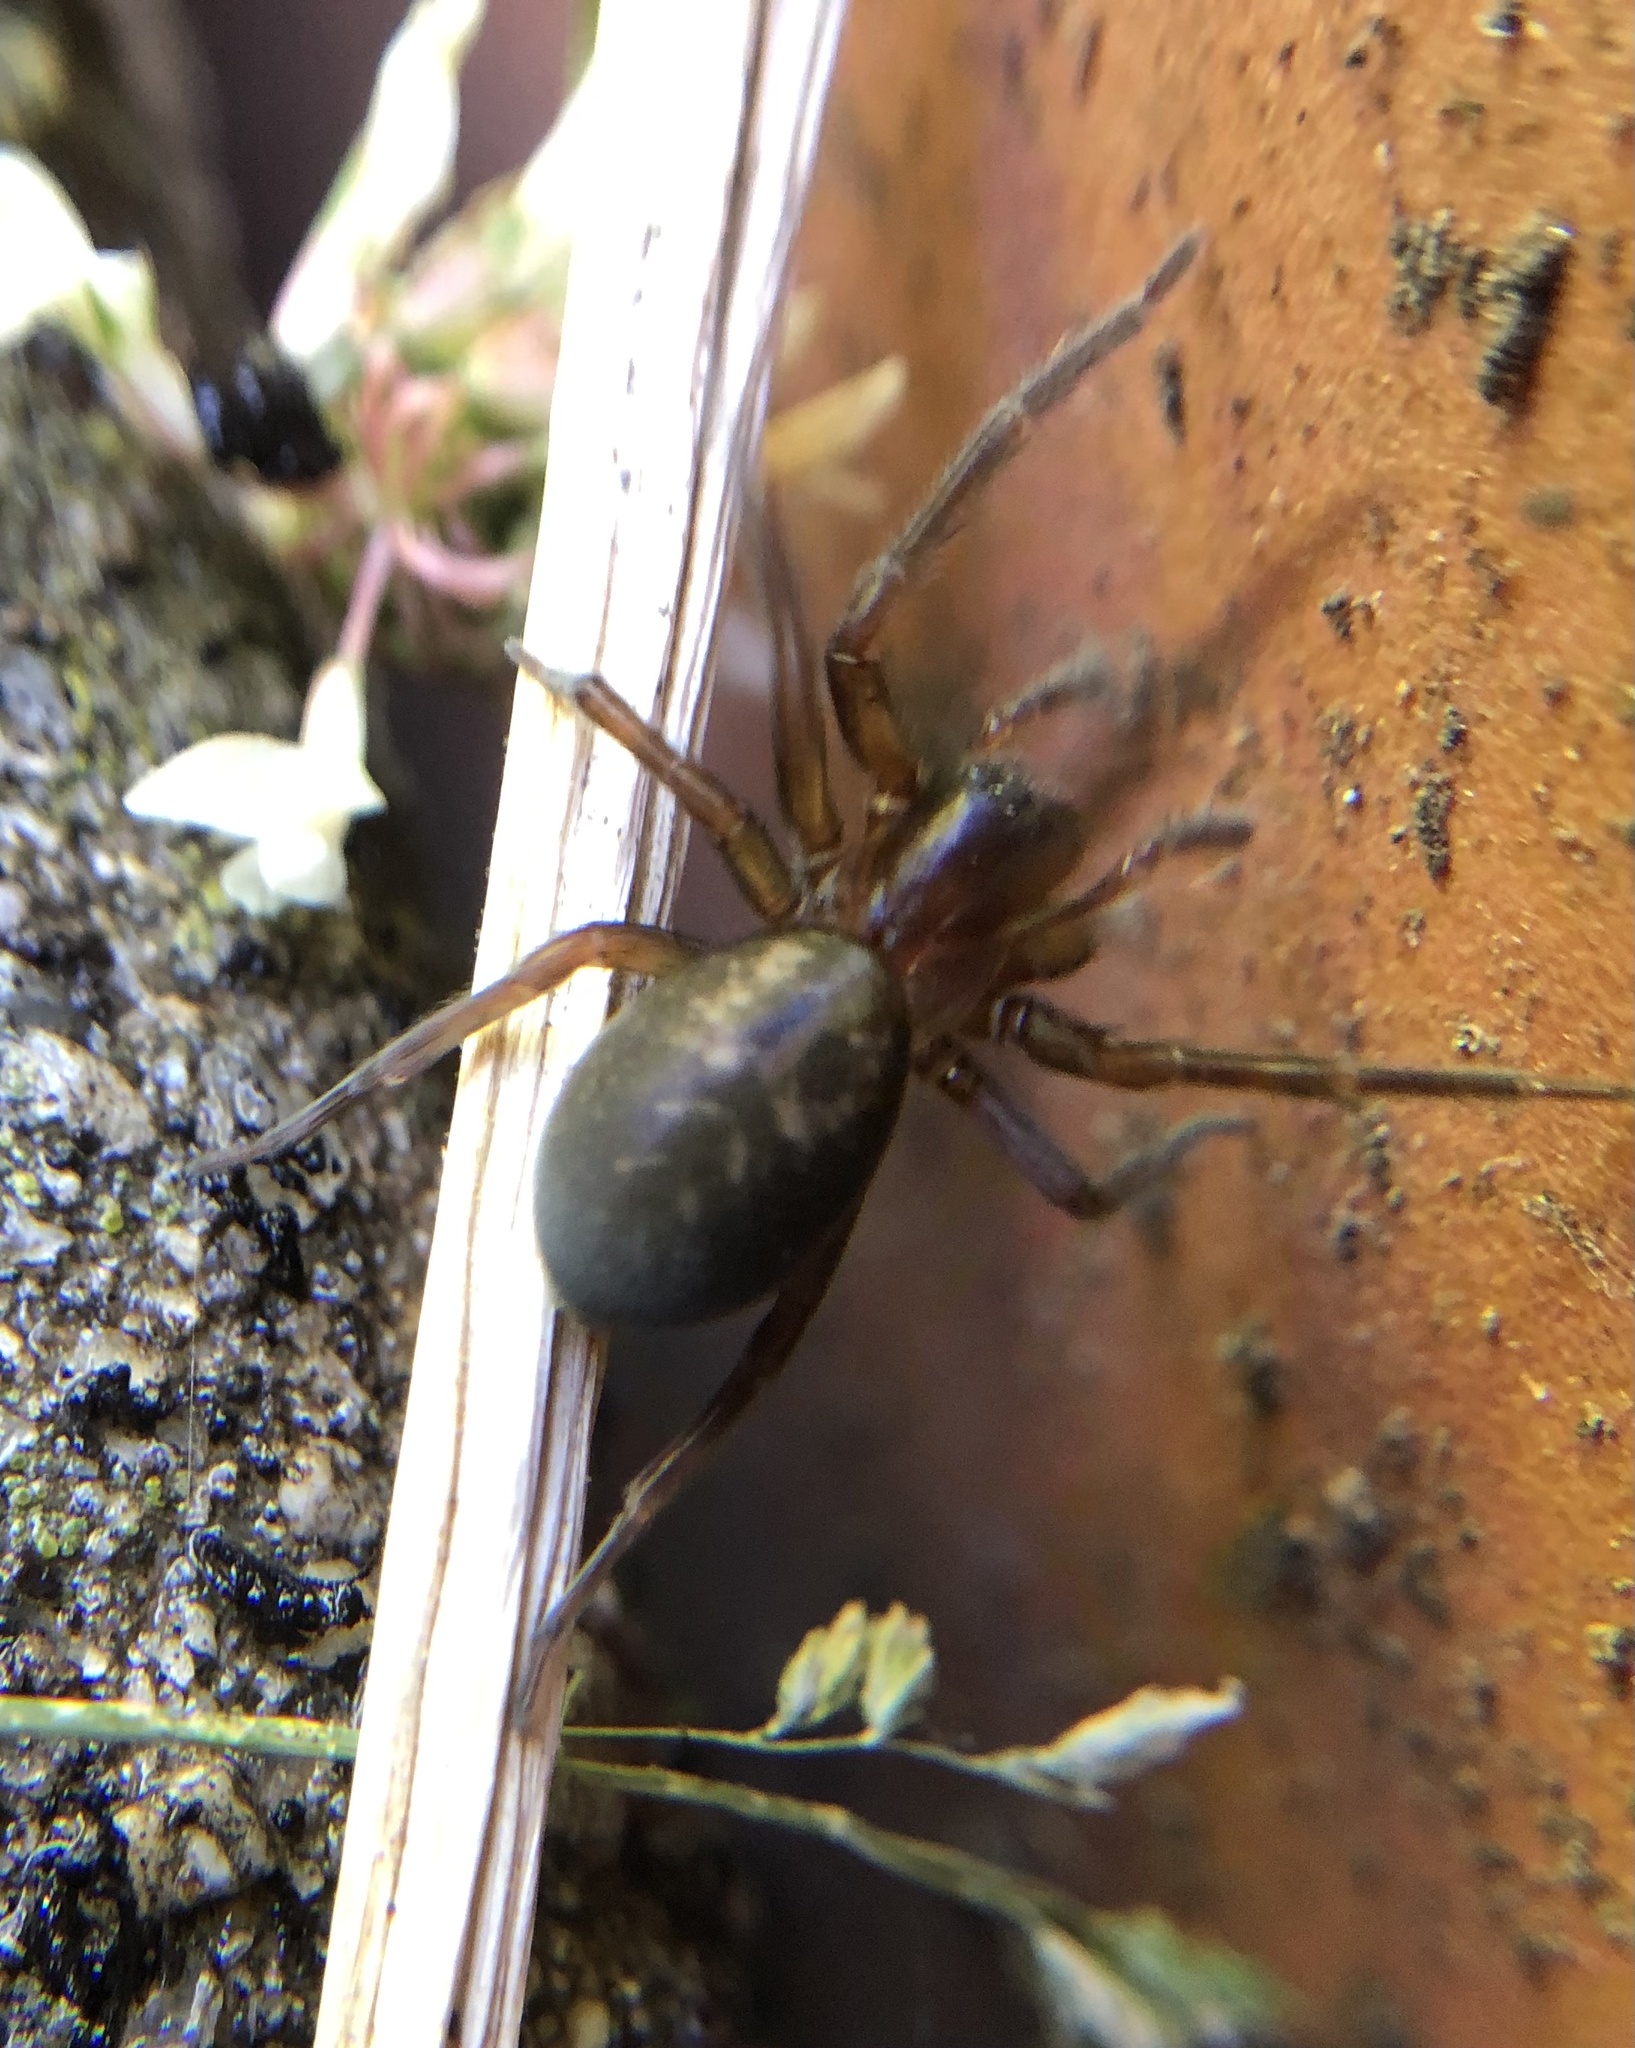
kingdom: Animalia
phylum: Arthropoda
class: Arachnida
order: Araneae
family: Amaurobiidae
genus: Amaurobius
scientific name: Amaurobius ferox
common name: Black laceweaver
